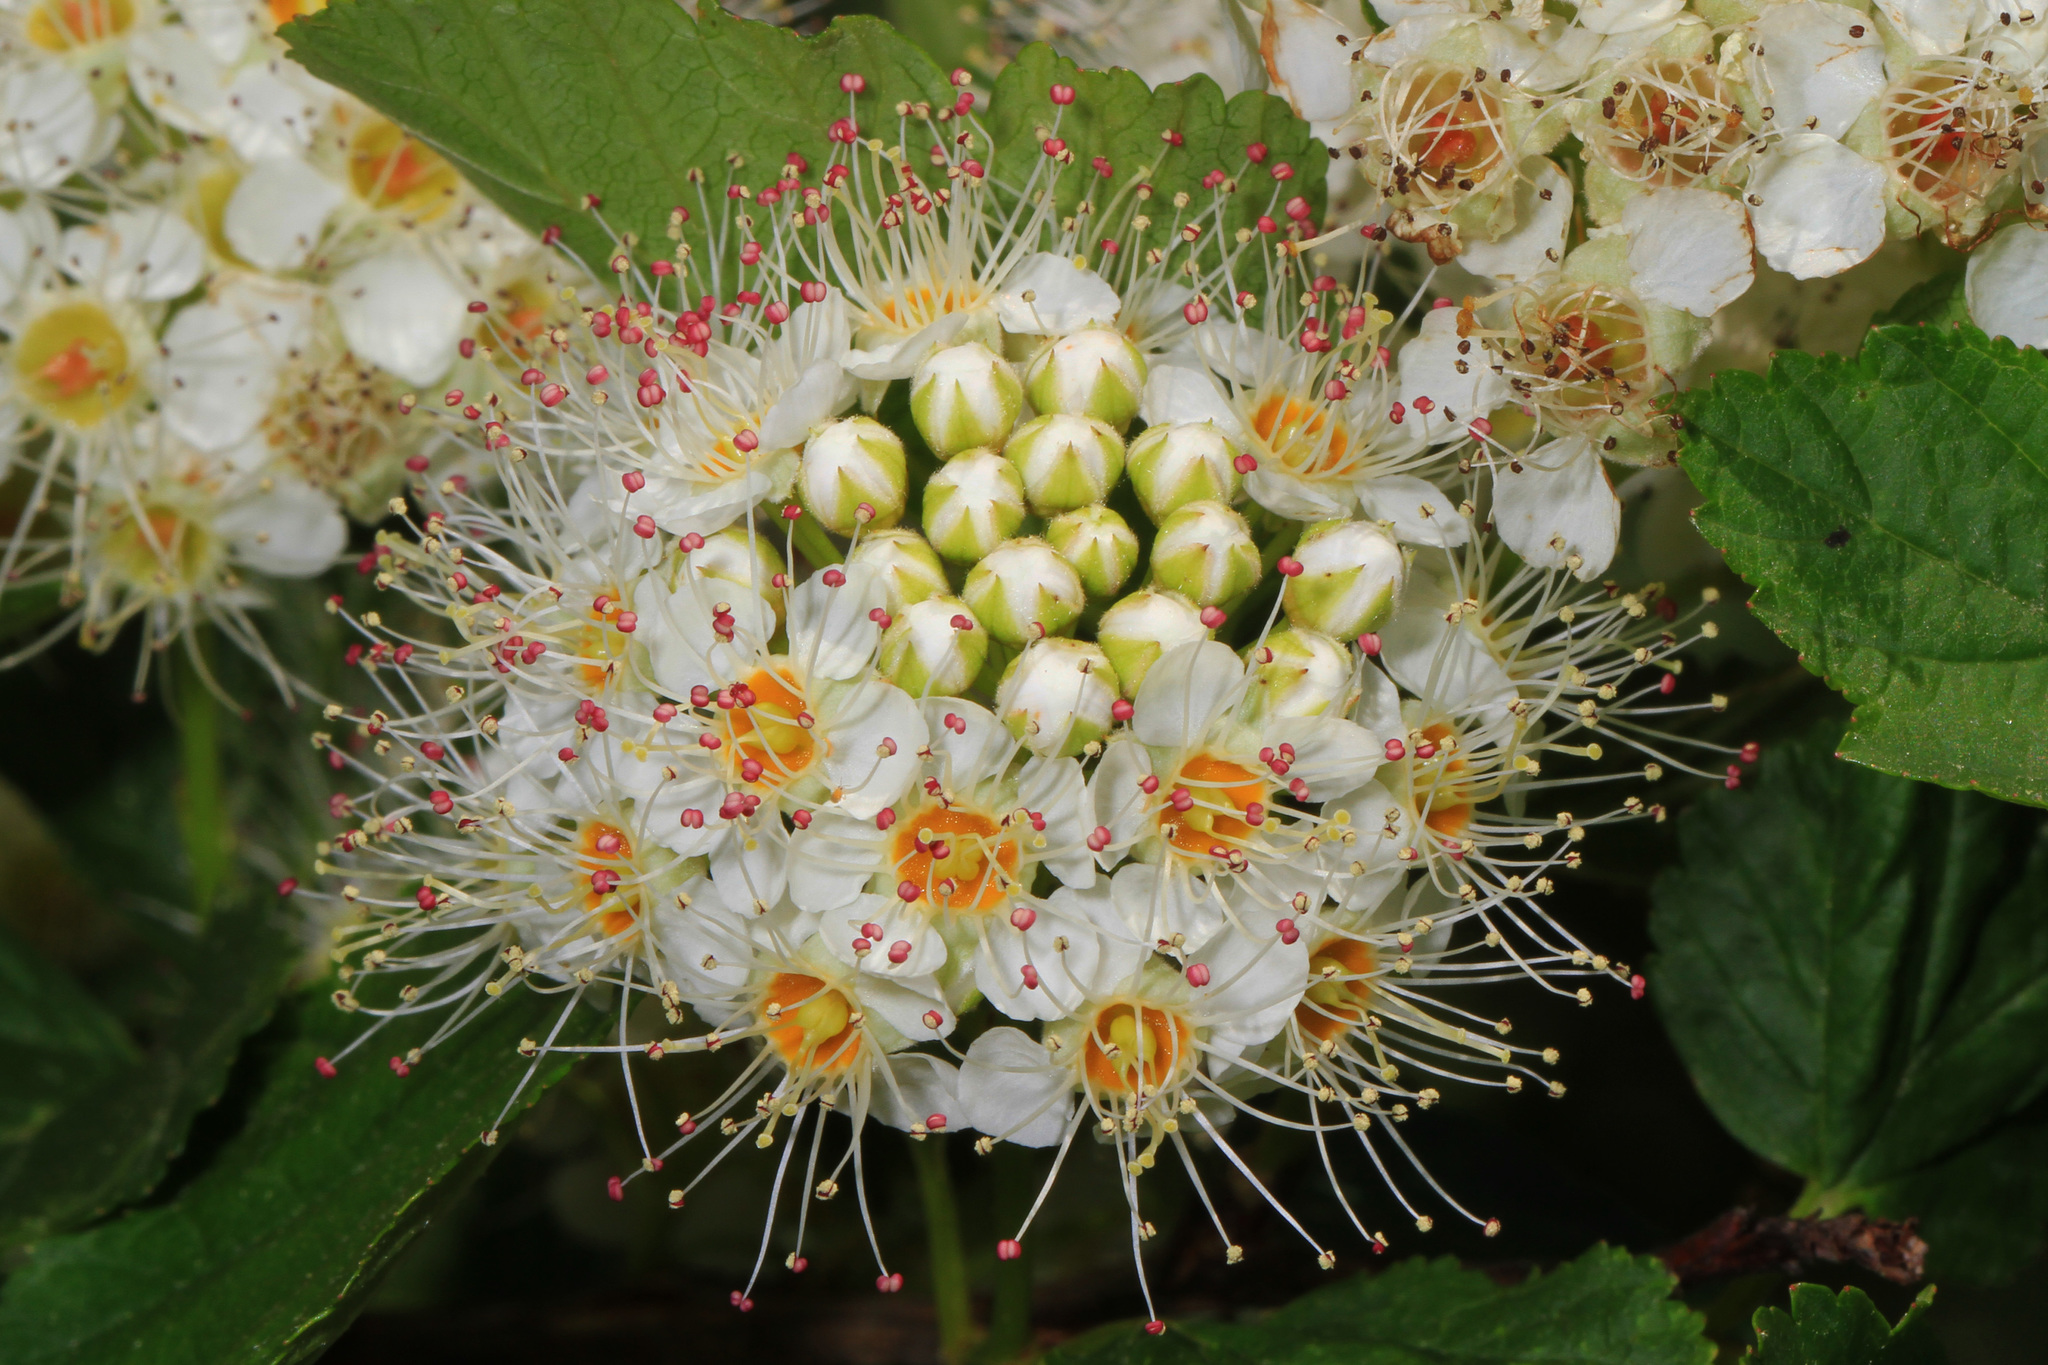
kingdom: Plantae
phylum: Tracheophyta
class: Magnoliopsida
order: Rosales
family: Rosaceae
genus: Physocarpus
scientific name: Physocarpus opulifolius
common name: Ninebark
